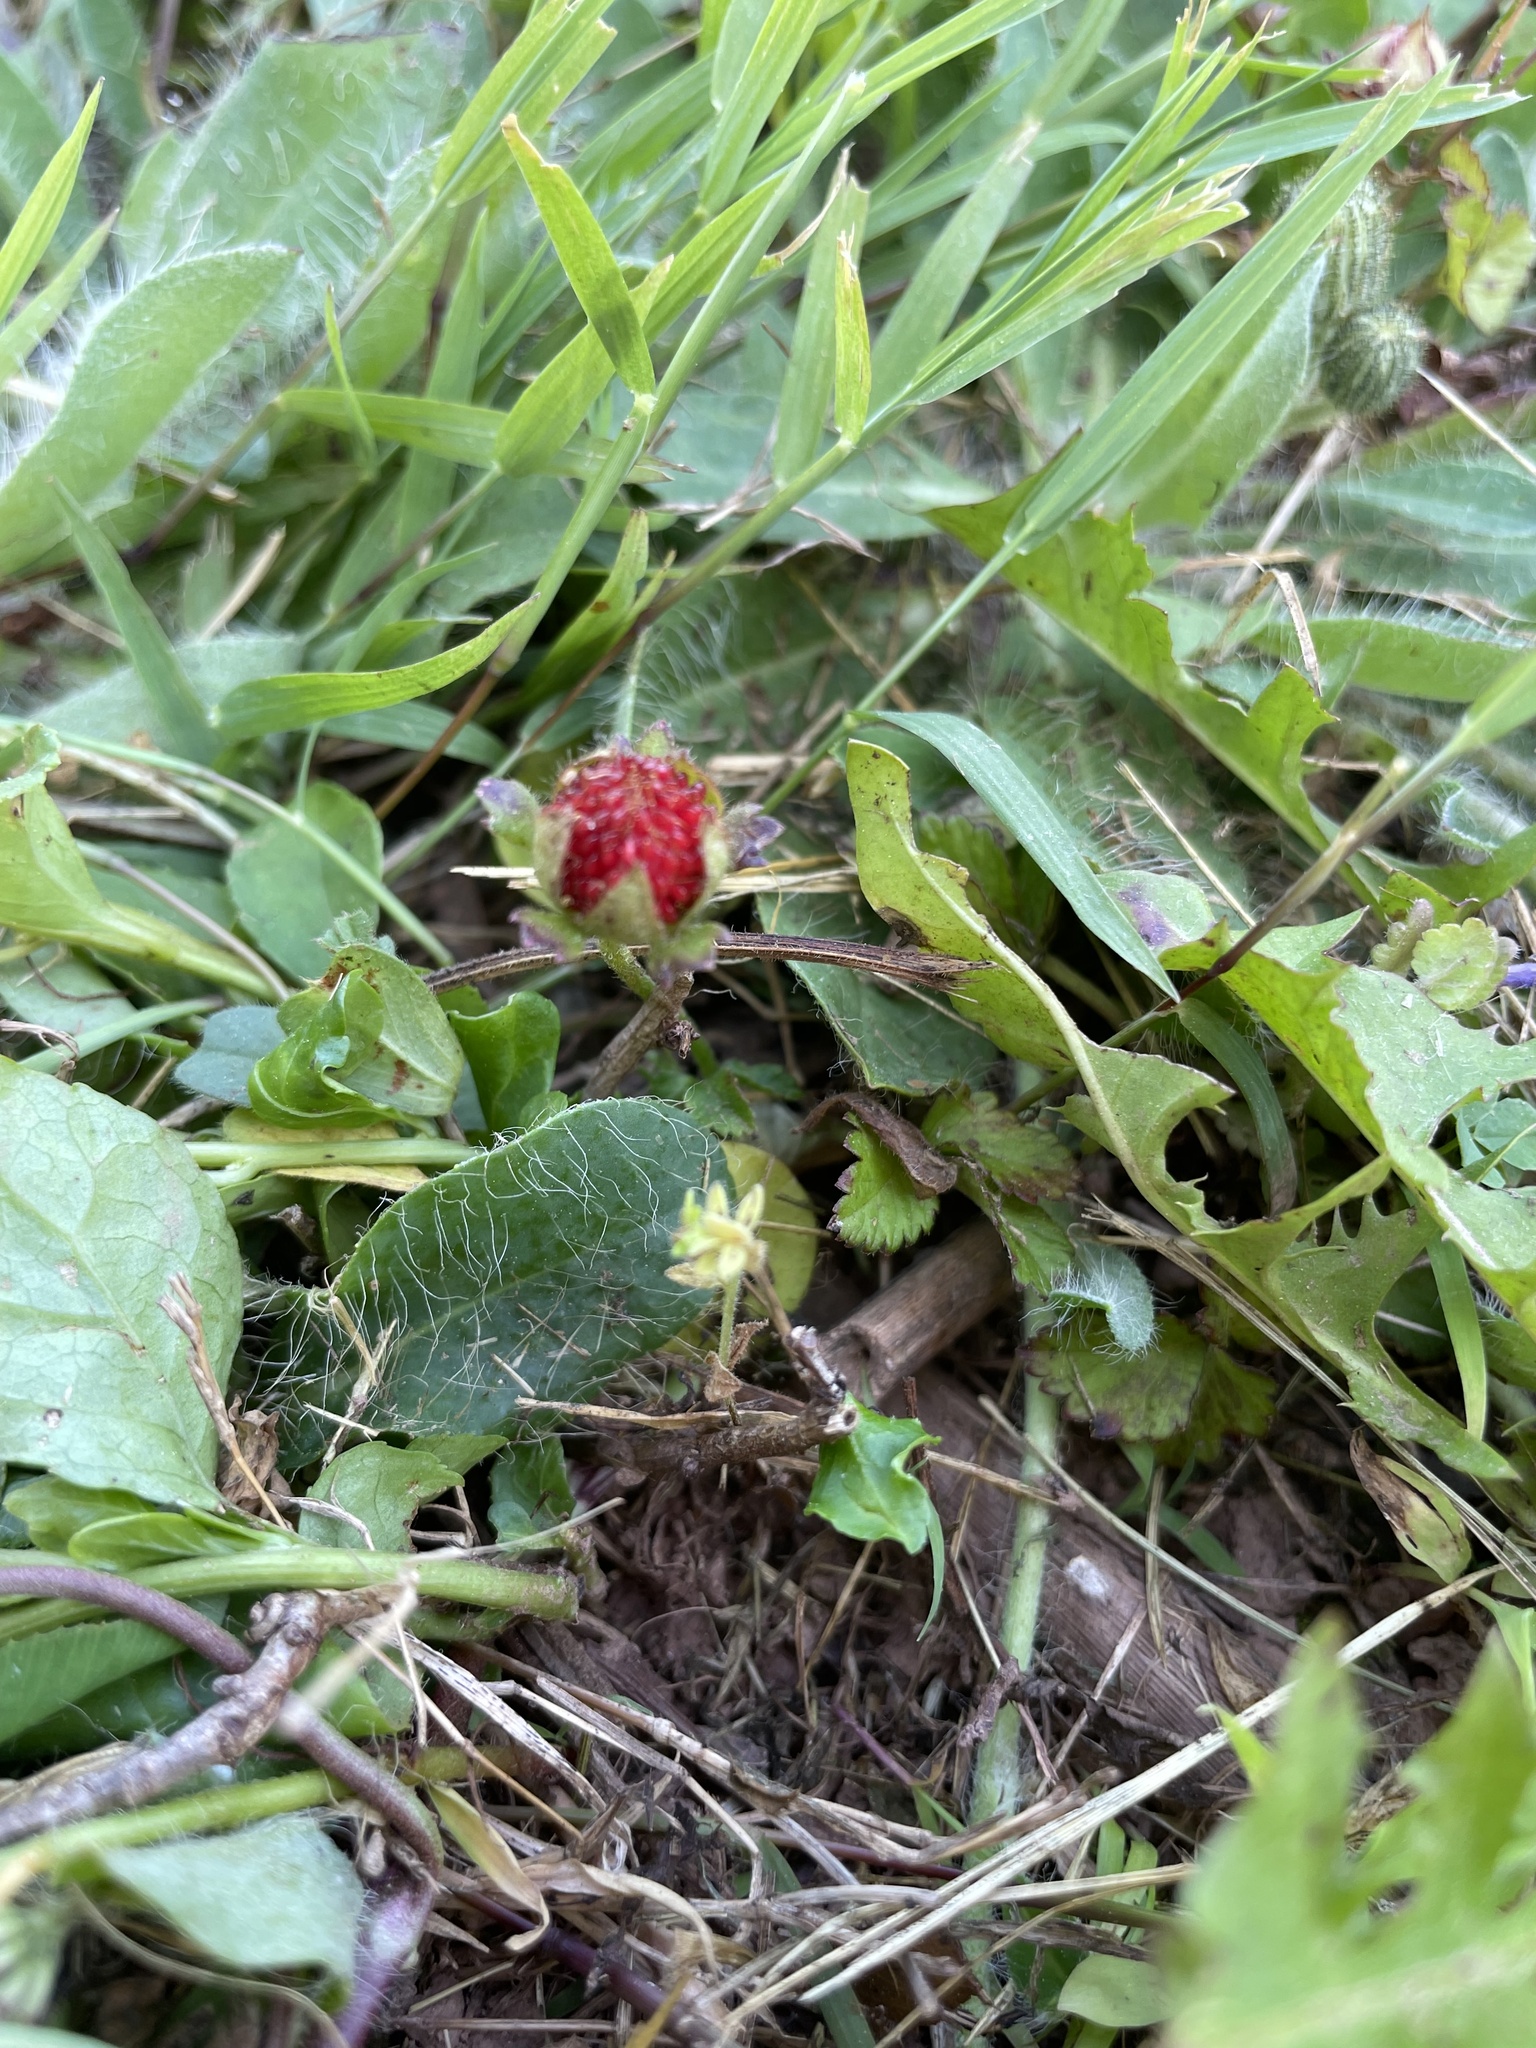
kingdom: Plantae
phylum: Tracheophyta
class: Magnoliopsida
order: Rosales
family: Rosaceae
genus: Potentilla
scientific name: Potentilla indica
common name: Yellow-flowered strawberry
